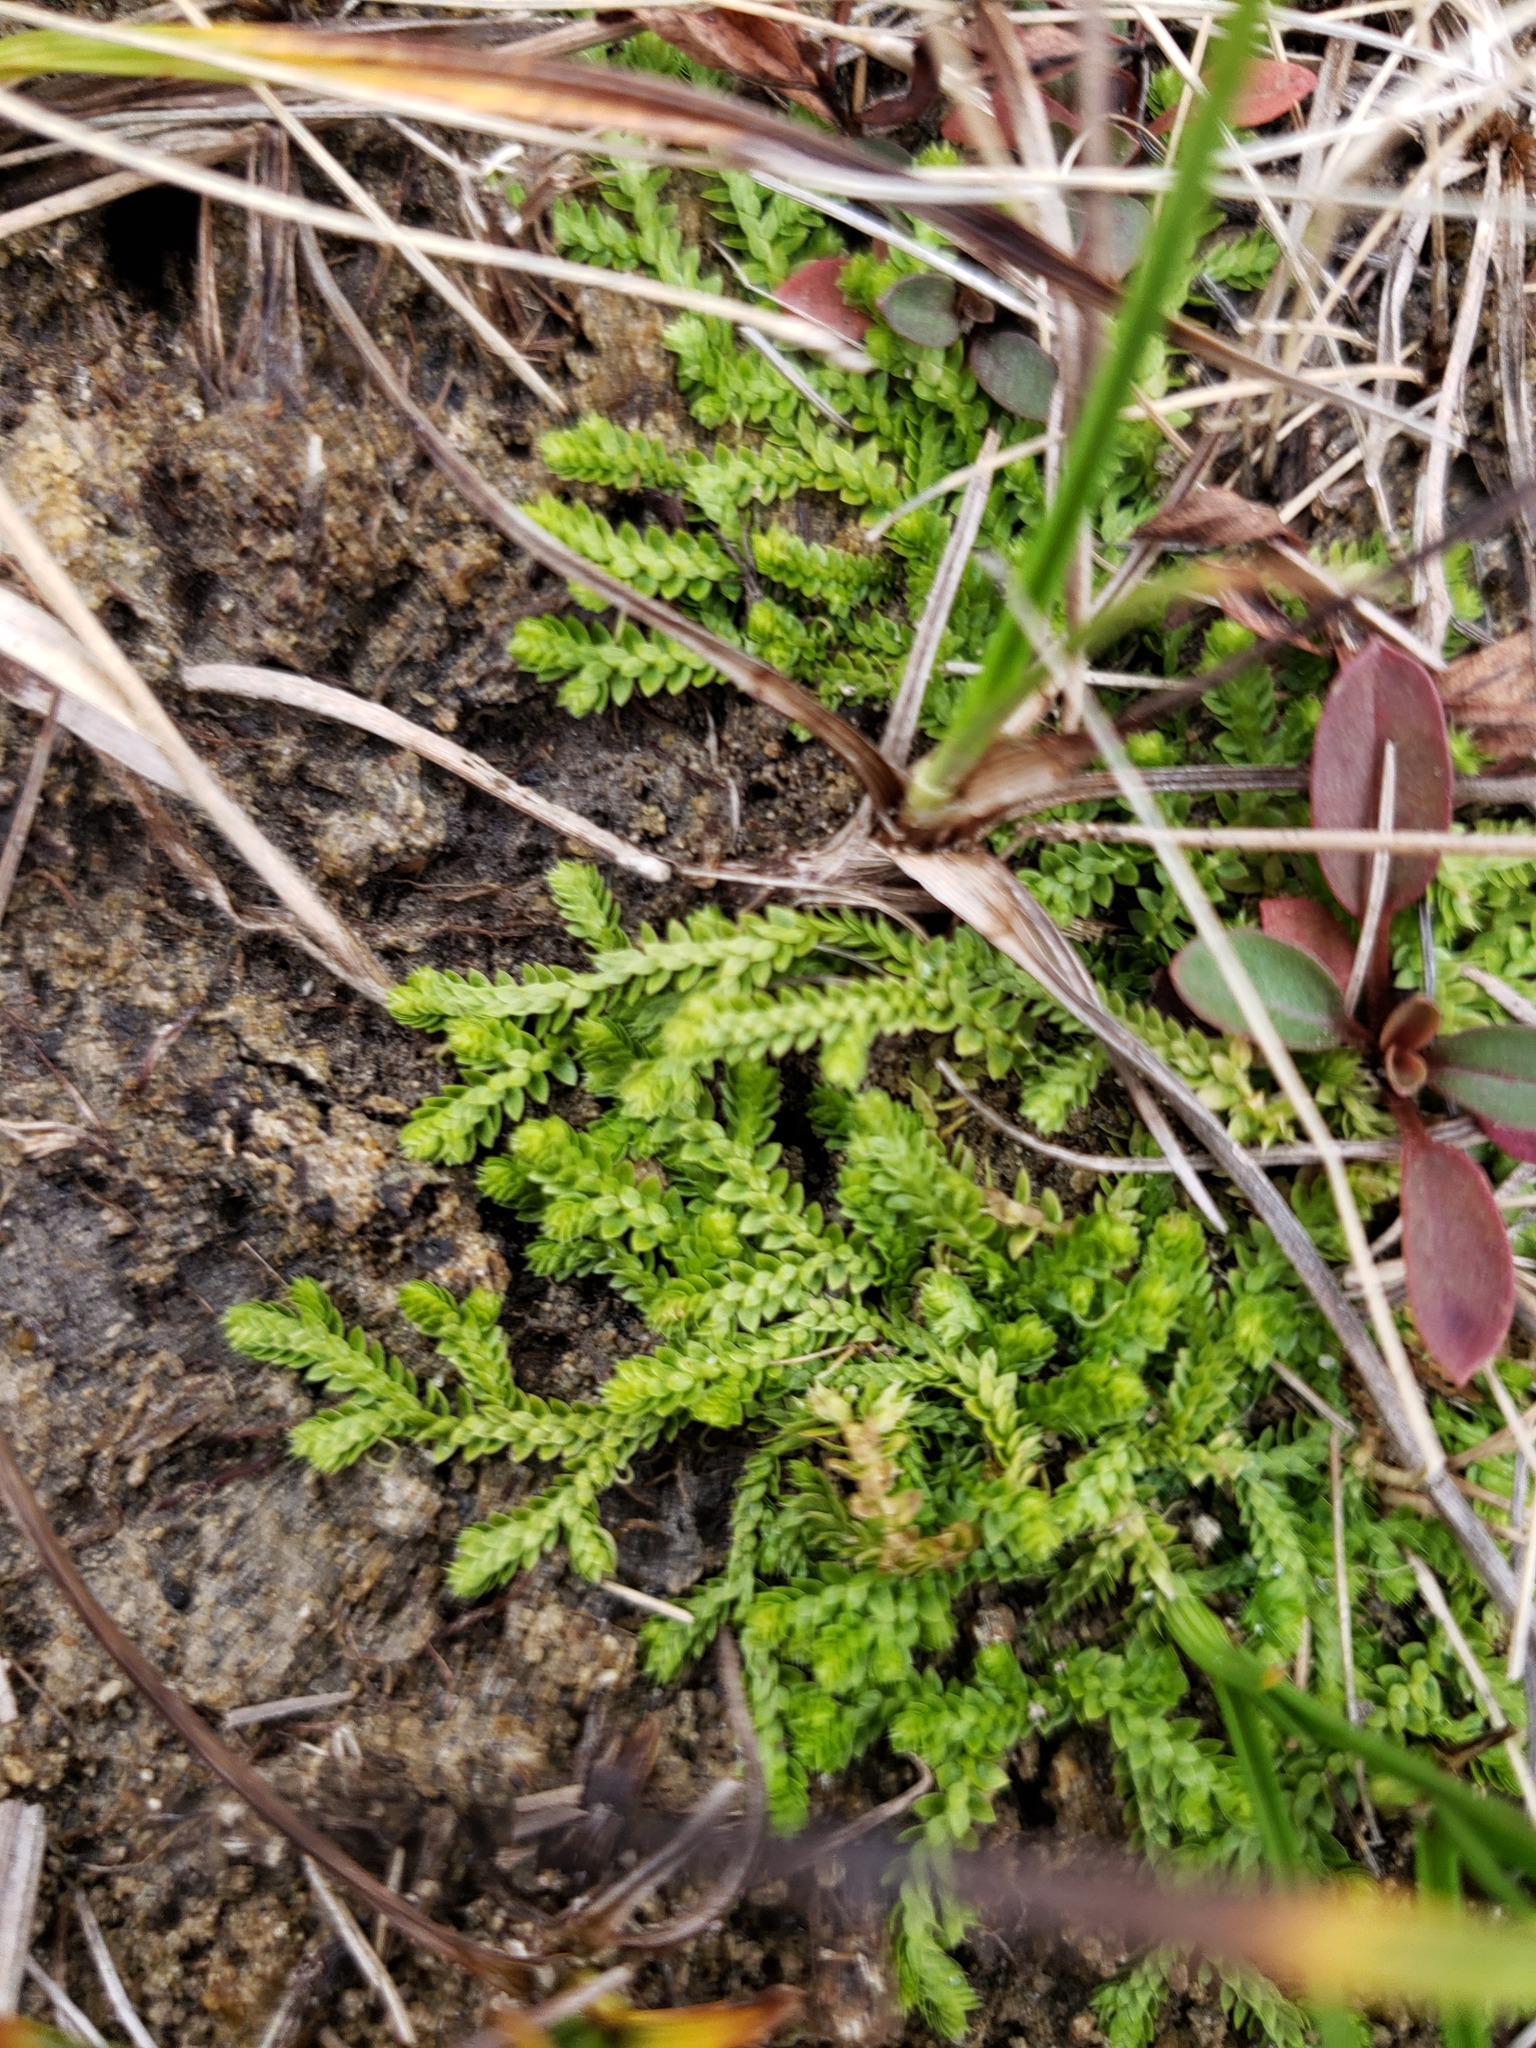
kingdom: Plantae
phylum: Tracheophyta
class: Lycopodiopsida
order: Selaginellales
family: Selaginellaceae
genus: Selaginella
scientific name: Selaginella eclipes
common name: Buck's meadow spikemoss
